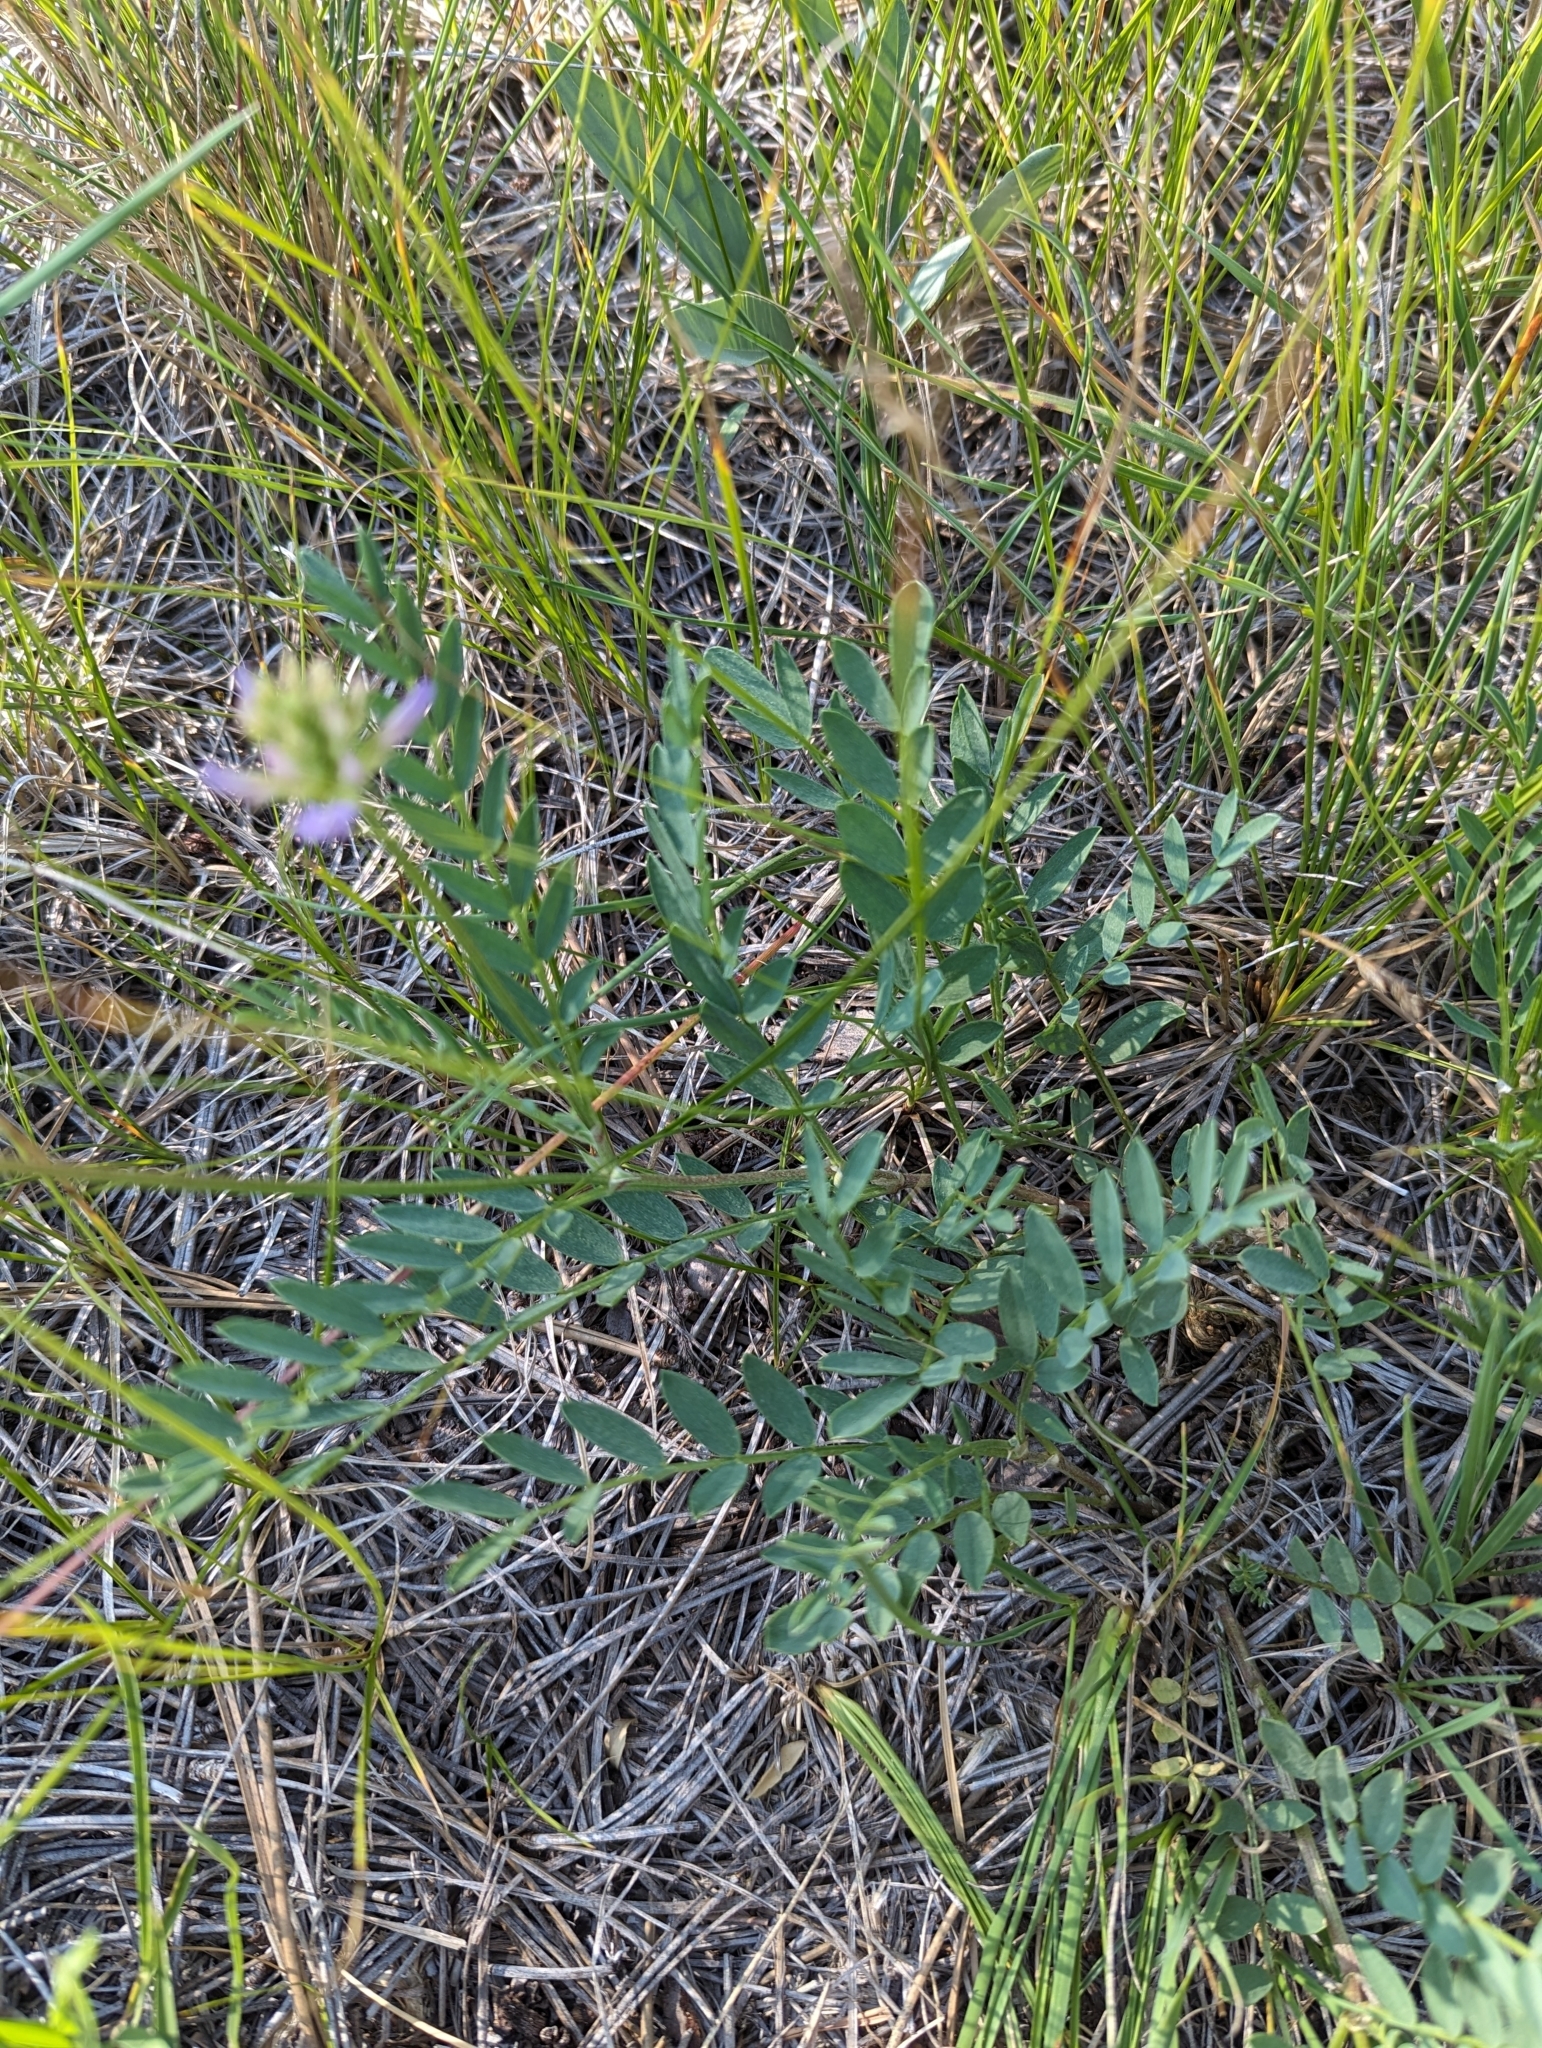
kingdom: Plantae
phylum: Tracheophyta
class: Magnoliopsida
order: Fabales
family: Fabaceae
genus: Astragalus
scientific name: Astragalus laxmannii
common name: Laxmann's milk-vetch
